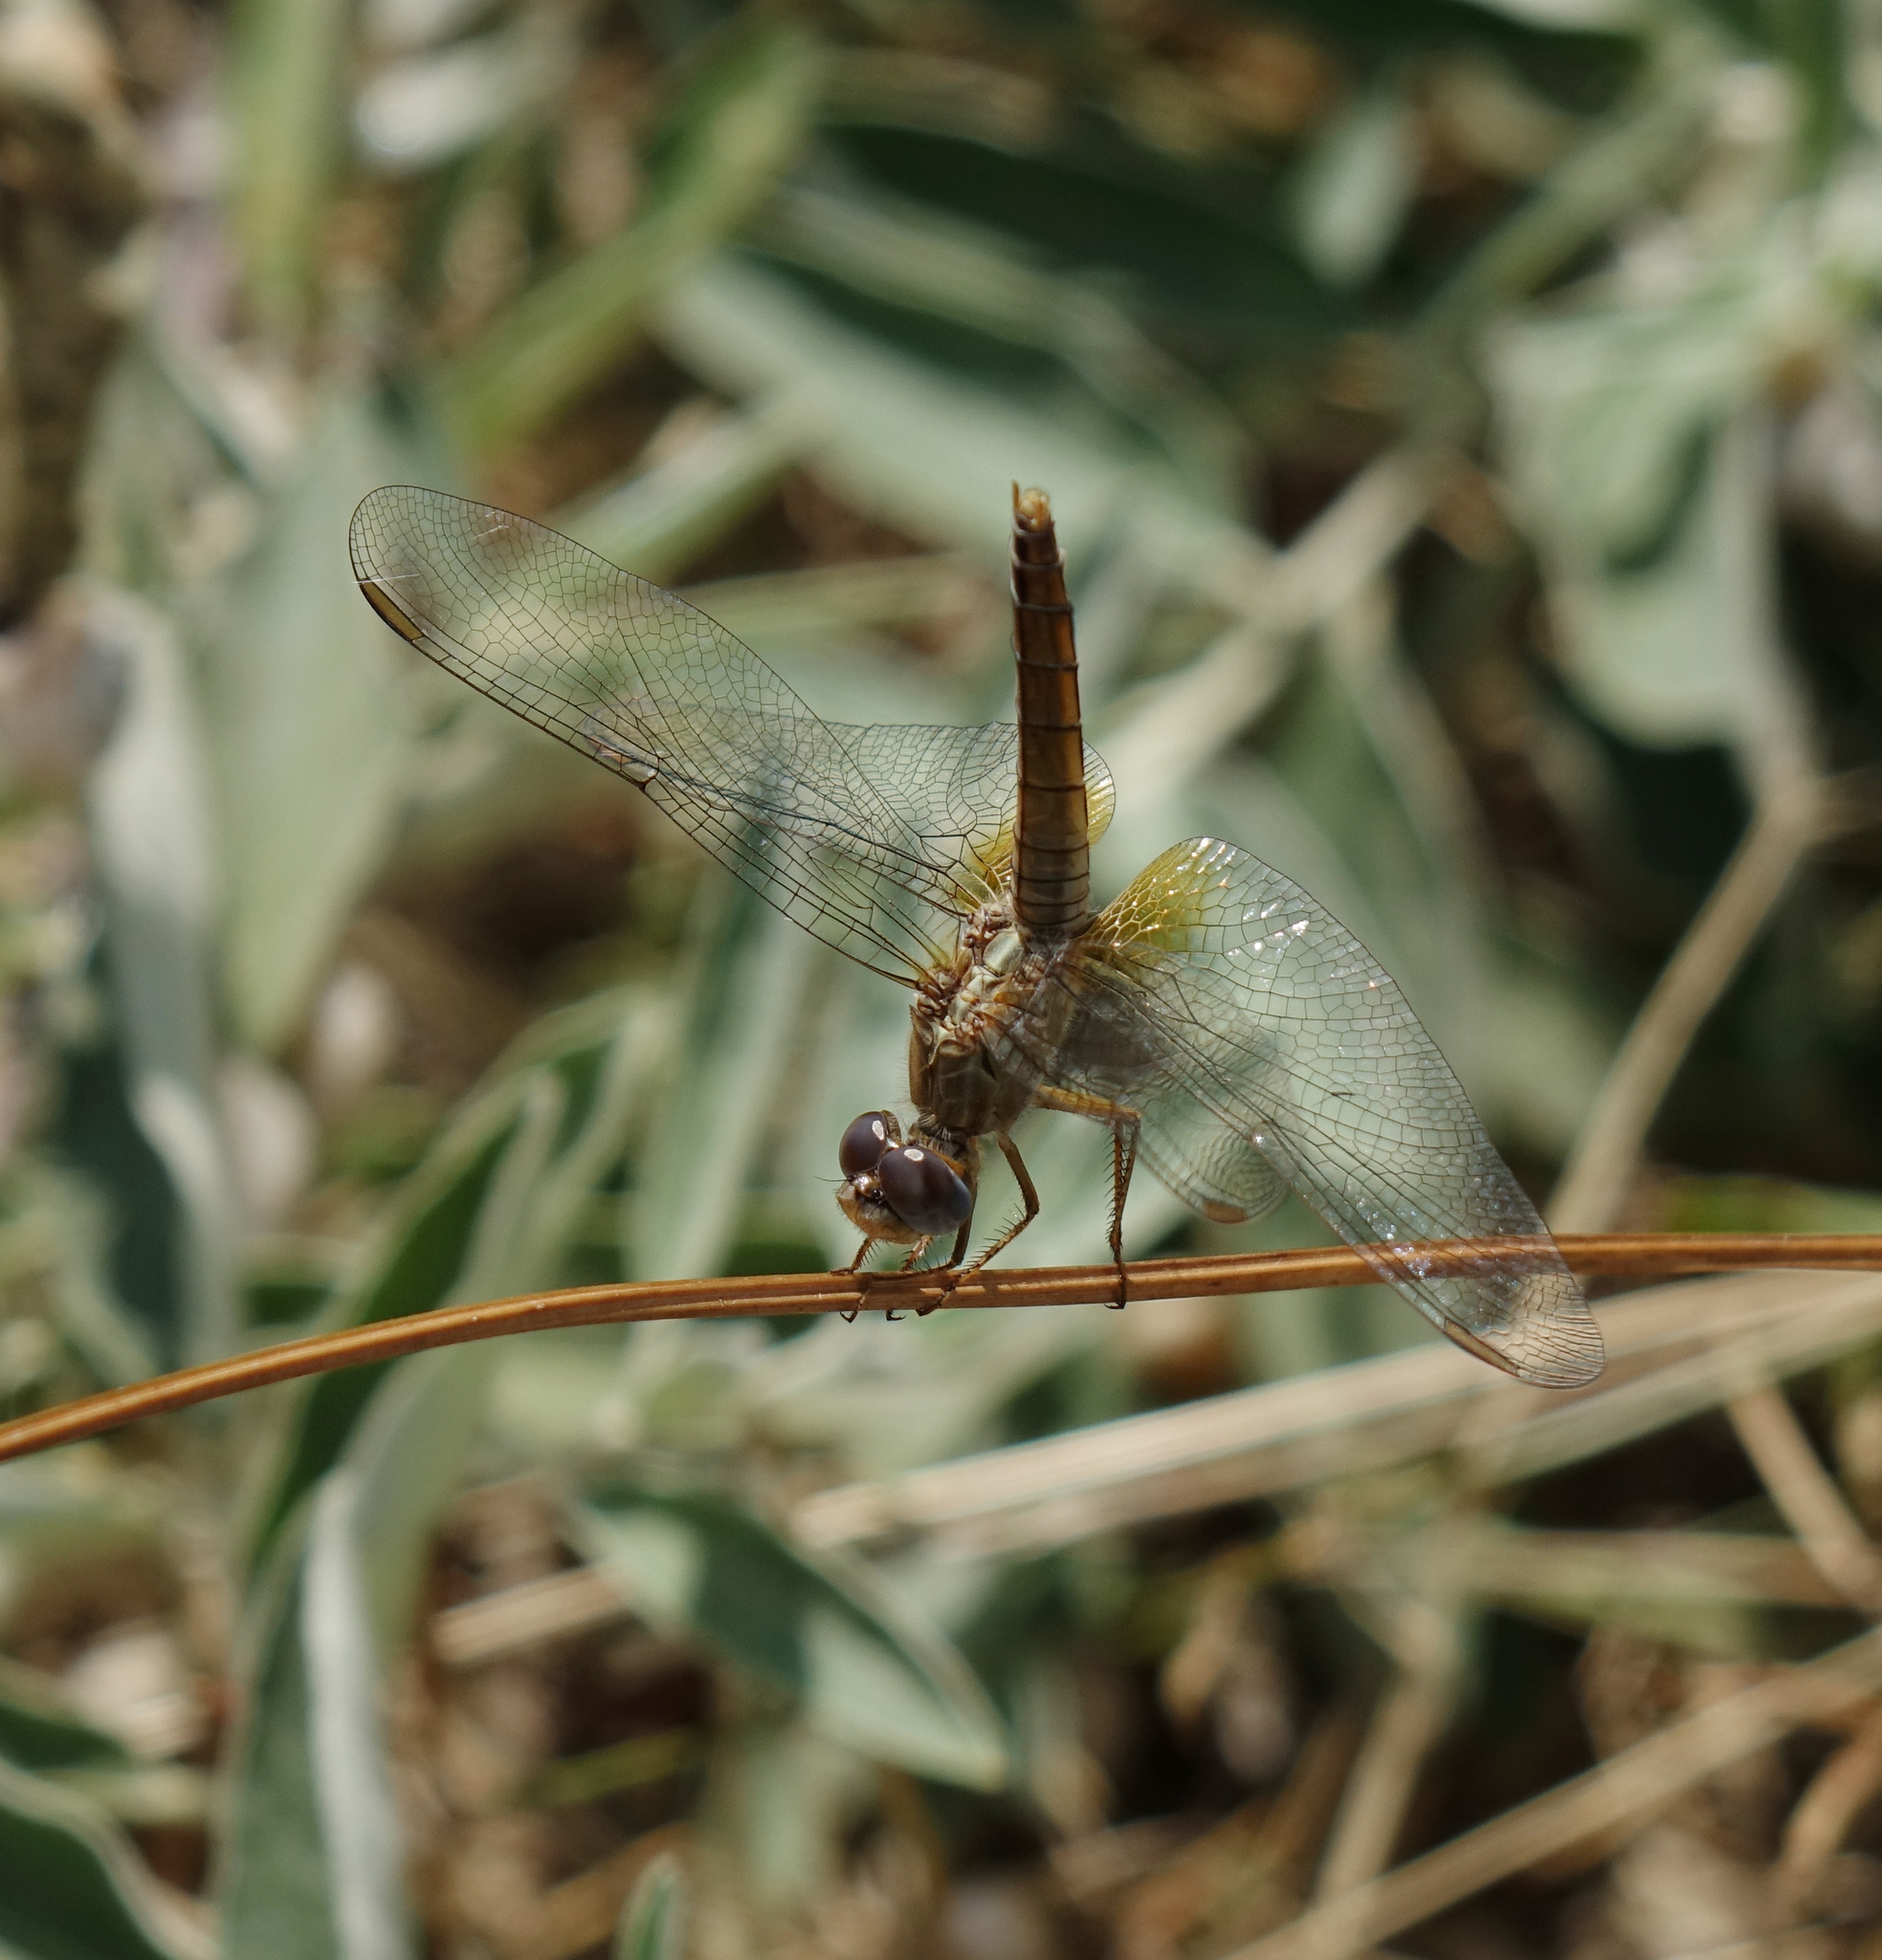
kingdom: Animalia
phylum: Arthropoda
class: Insecta
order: Odonata
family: Libellulidae
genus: Crocothemis
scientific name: Crocothemis erythraea
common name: Scarlet dragonfly
